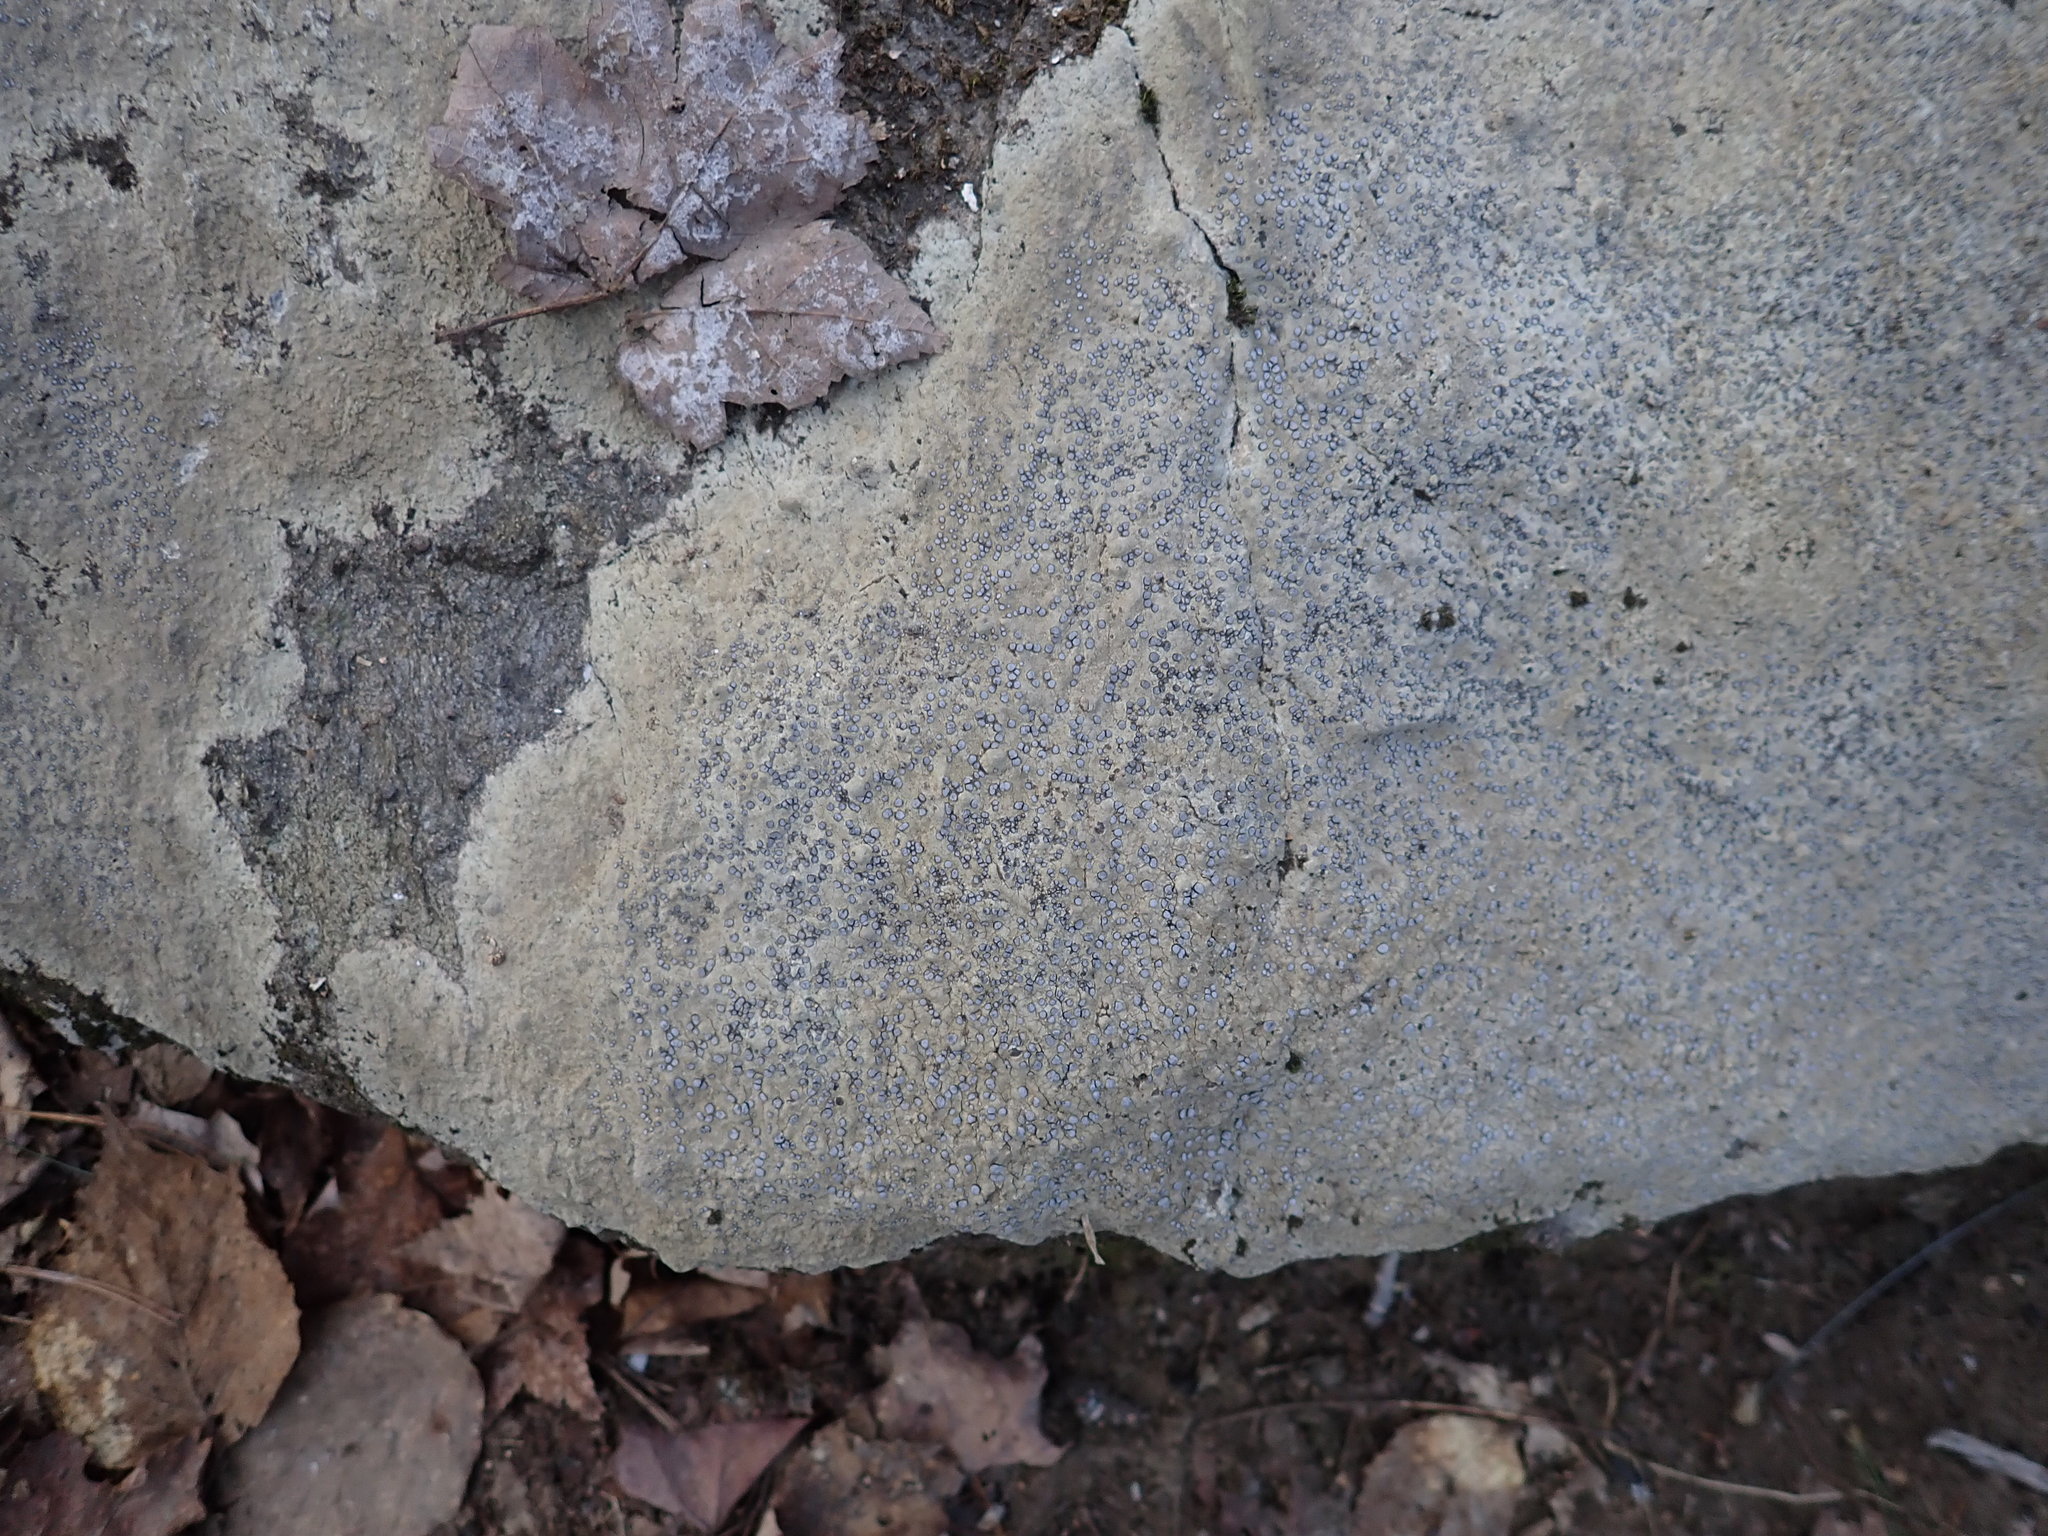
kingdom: Fungi
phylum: Ascomycota
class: Lecanoromycetes
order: Lecideales
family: Lecideaceae
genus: Porpidia
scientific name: Porpidia albocaerulescens
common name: Smokey-eyed boulder lichen
